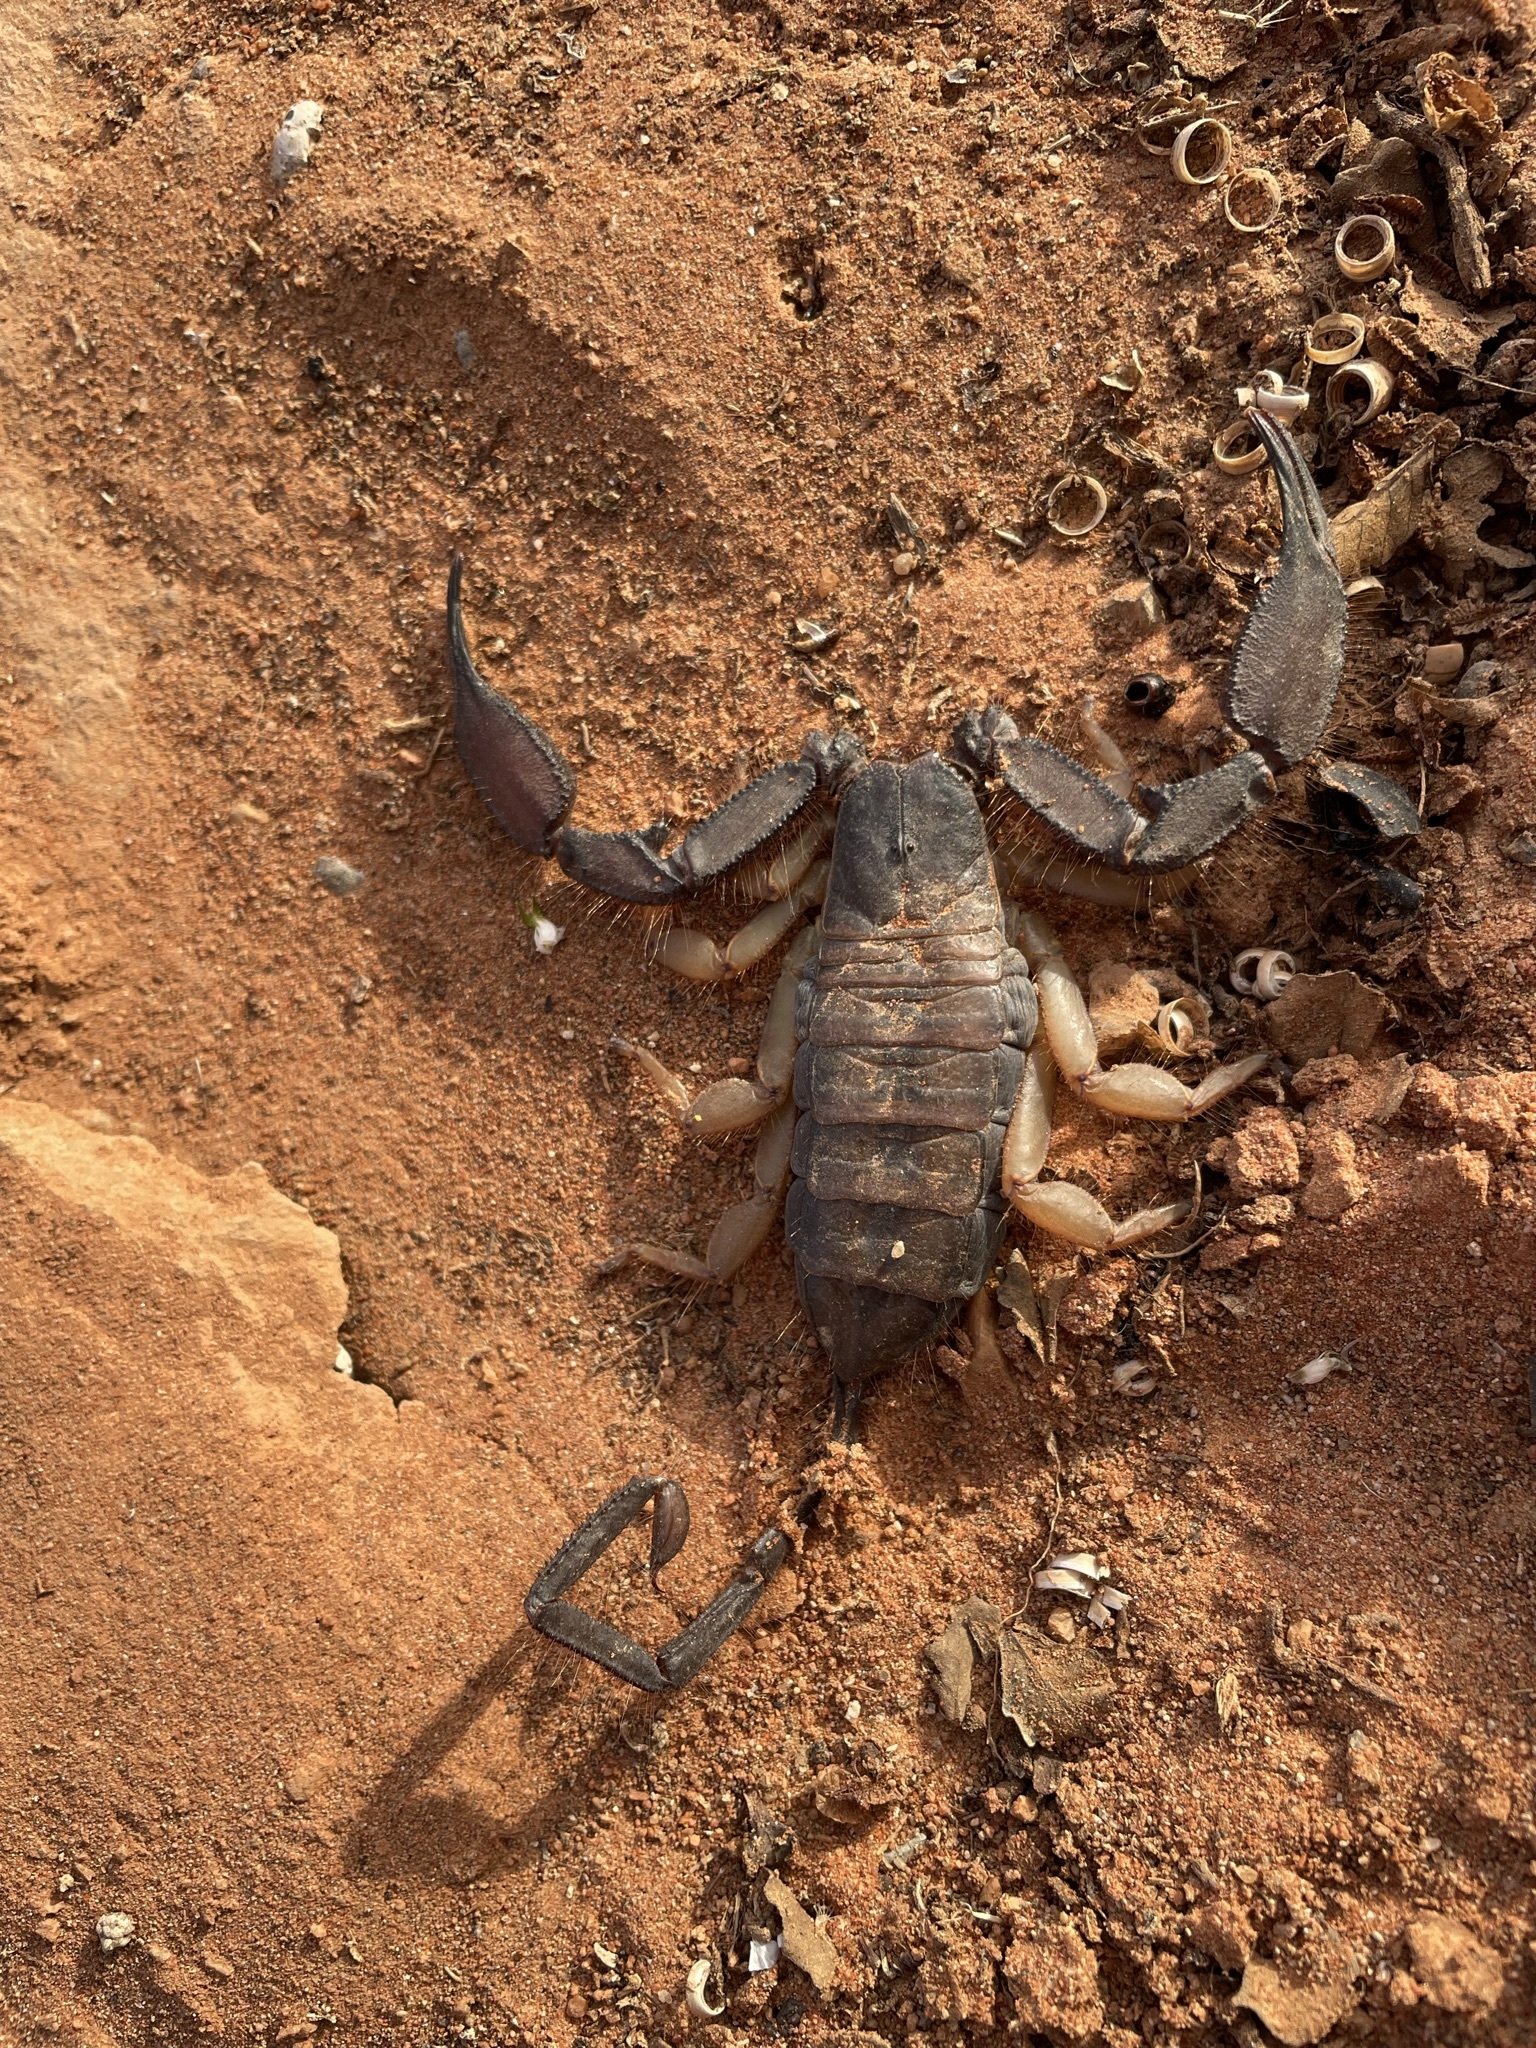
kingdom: Animalia
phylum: Arthropoda
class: Arachnida
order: Scorpiones
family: Hormuridae
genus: Hadogenes
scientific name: Hadogenes phyllodes
